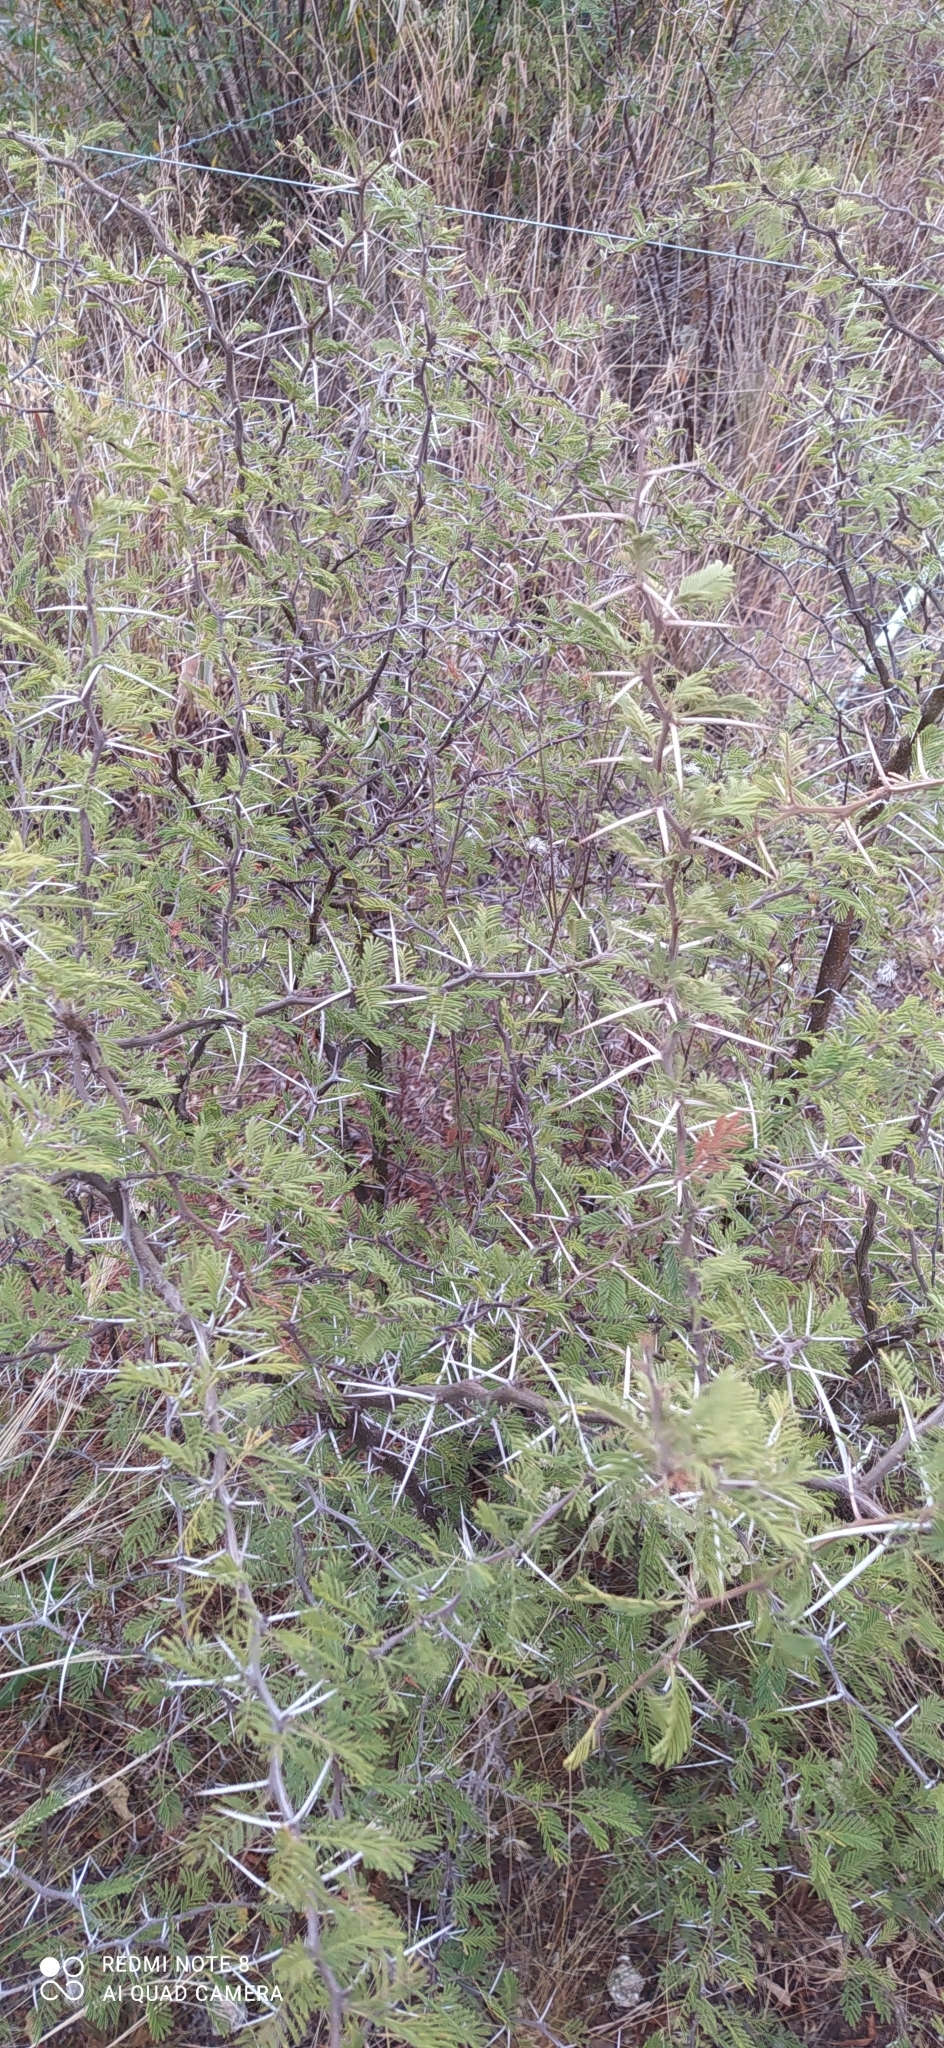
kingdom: Plantae
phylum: Tracheophyta
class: Magnoliopsida
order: Fabales
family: Fabaceae
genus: Vachellia
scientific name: Vachellia caven
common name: Roman cassie
